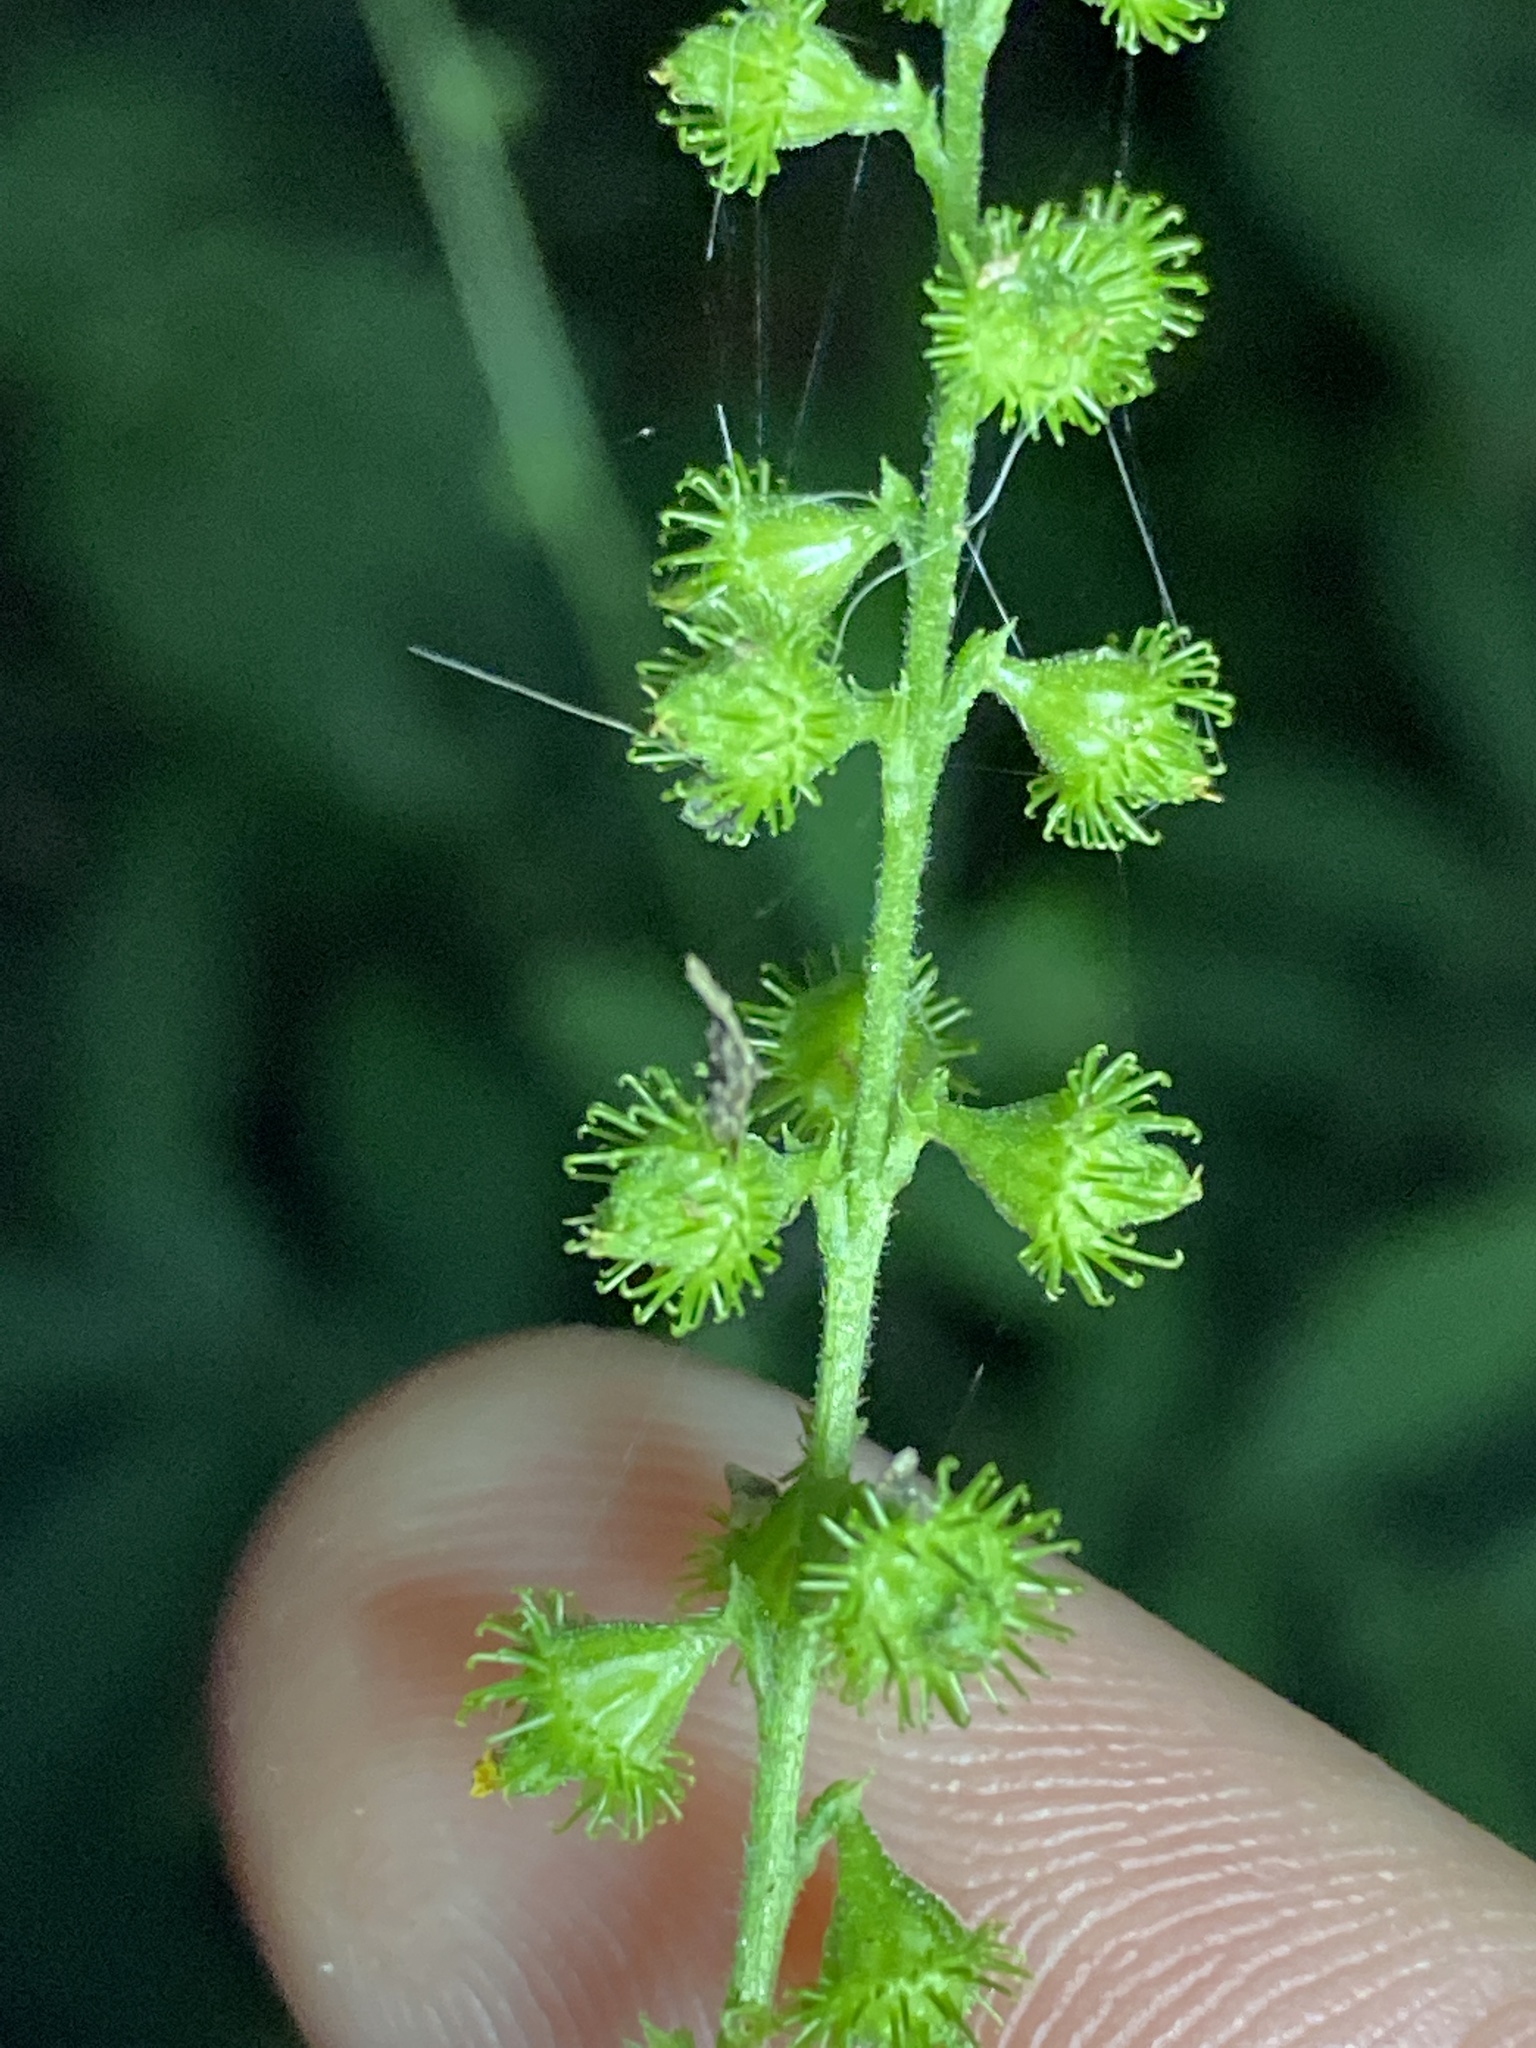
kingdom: Plantae
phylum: Tracheophyta
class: Magnoliopsida
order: Rosales
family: Rosaceae
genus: Agrimonia
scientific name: Agrimonia parviflora
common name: Harvest-lice
